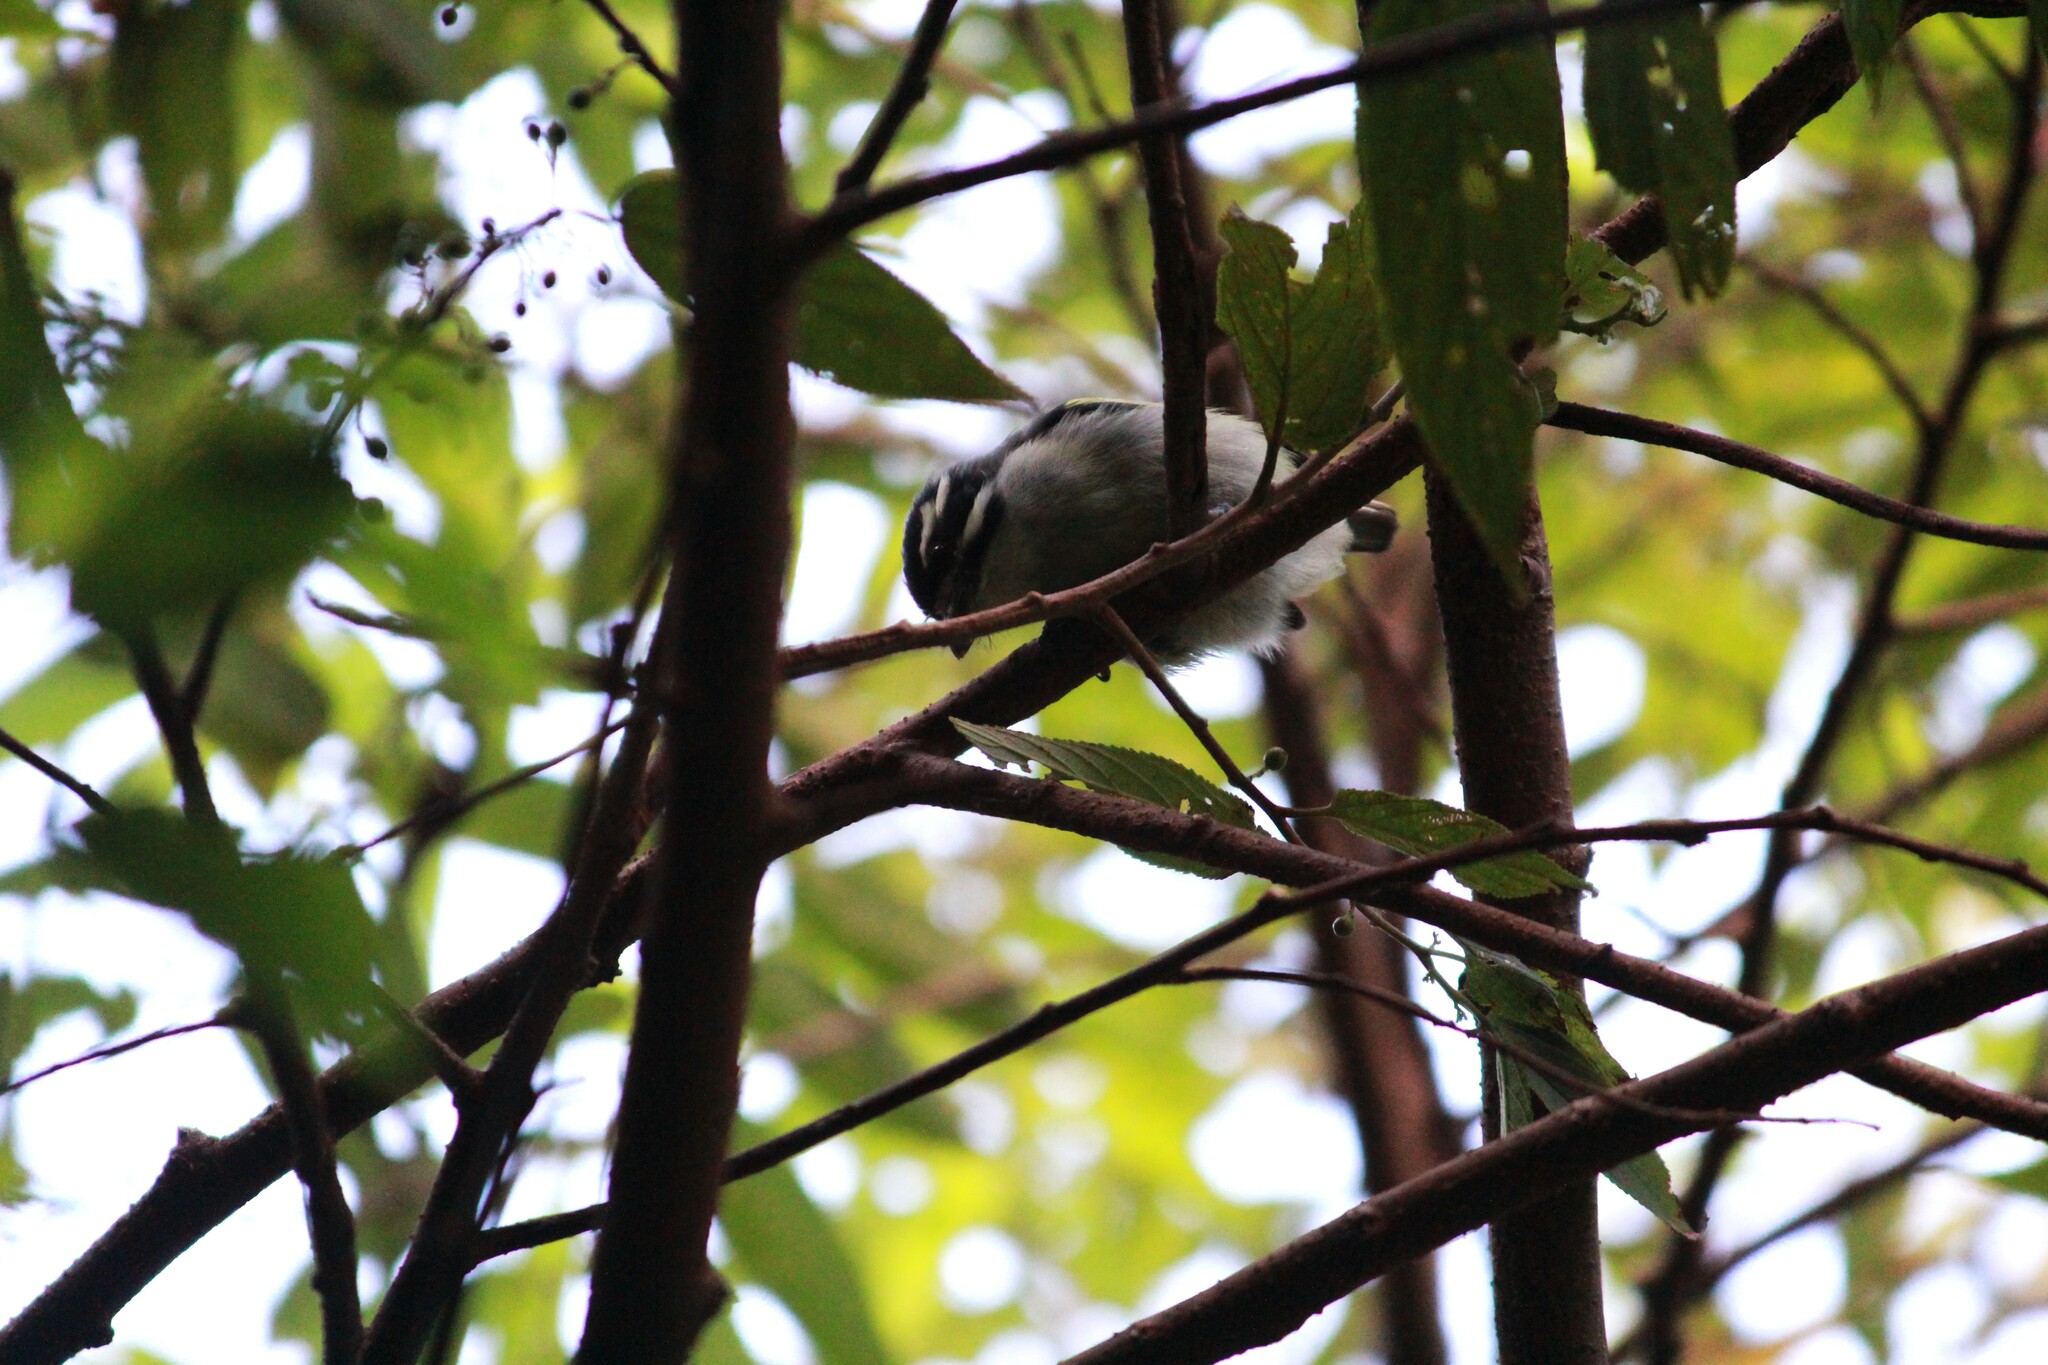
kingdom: Animalia
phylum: Chordata
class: Aves
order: Piciformes
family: Lybiidae
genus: Pogoniulus
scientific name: Pogoniulus bilineatus
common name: Yellow-rumped tinkerbird
